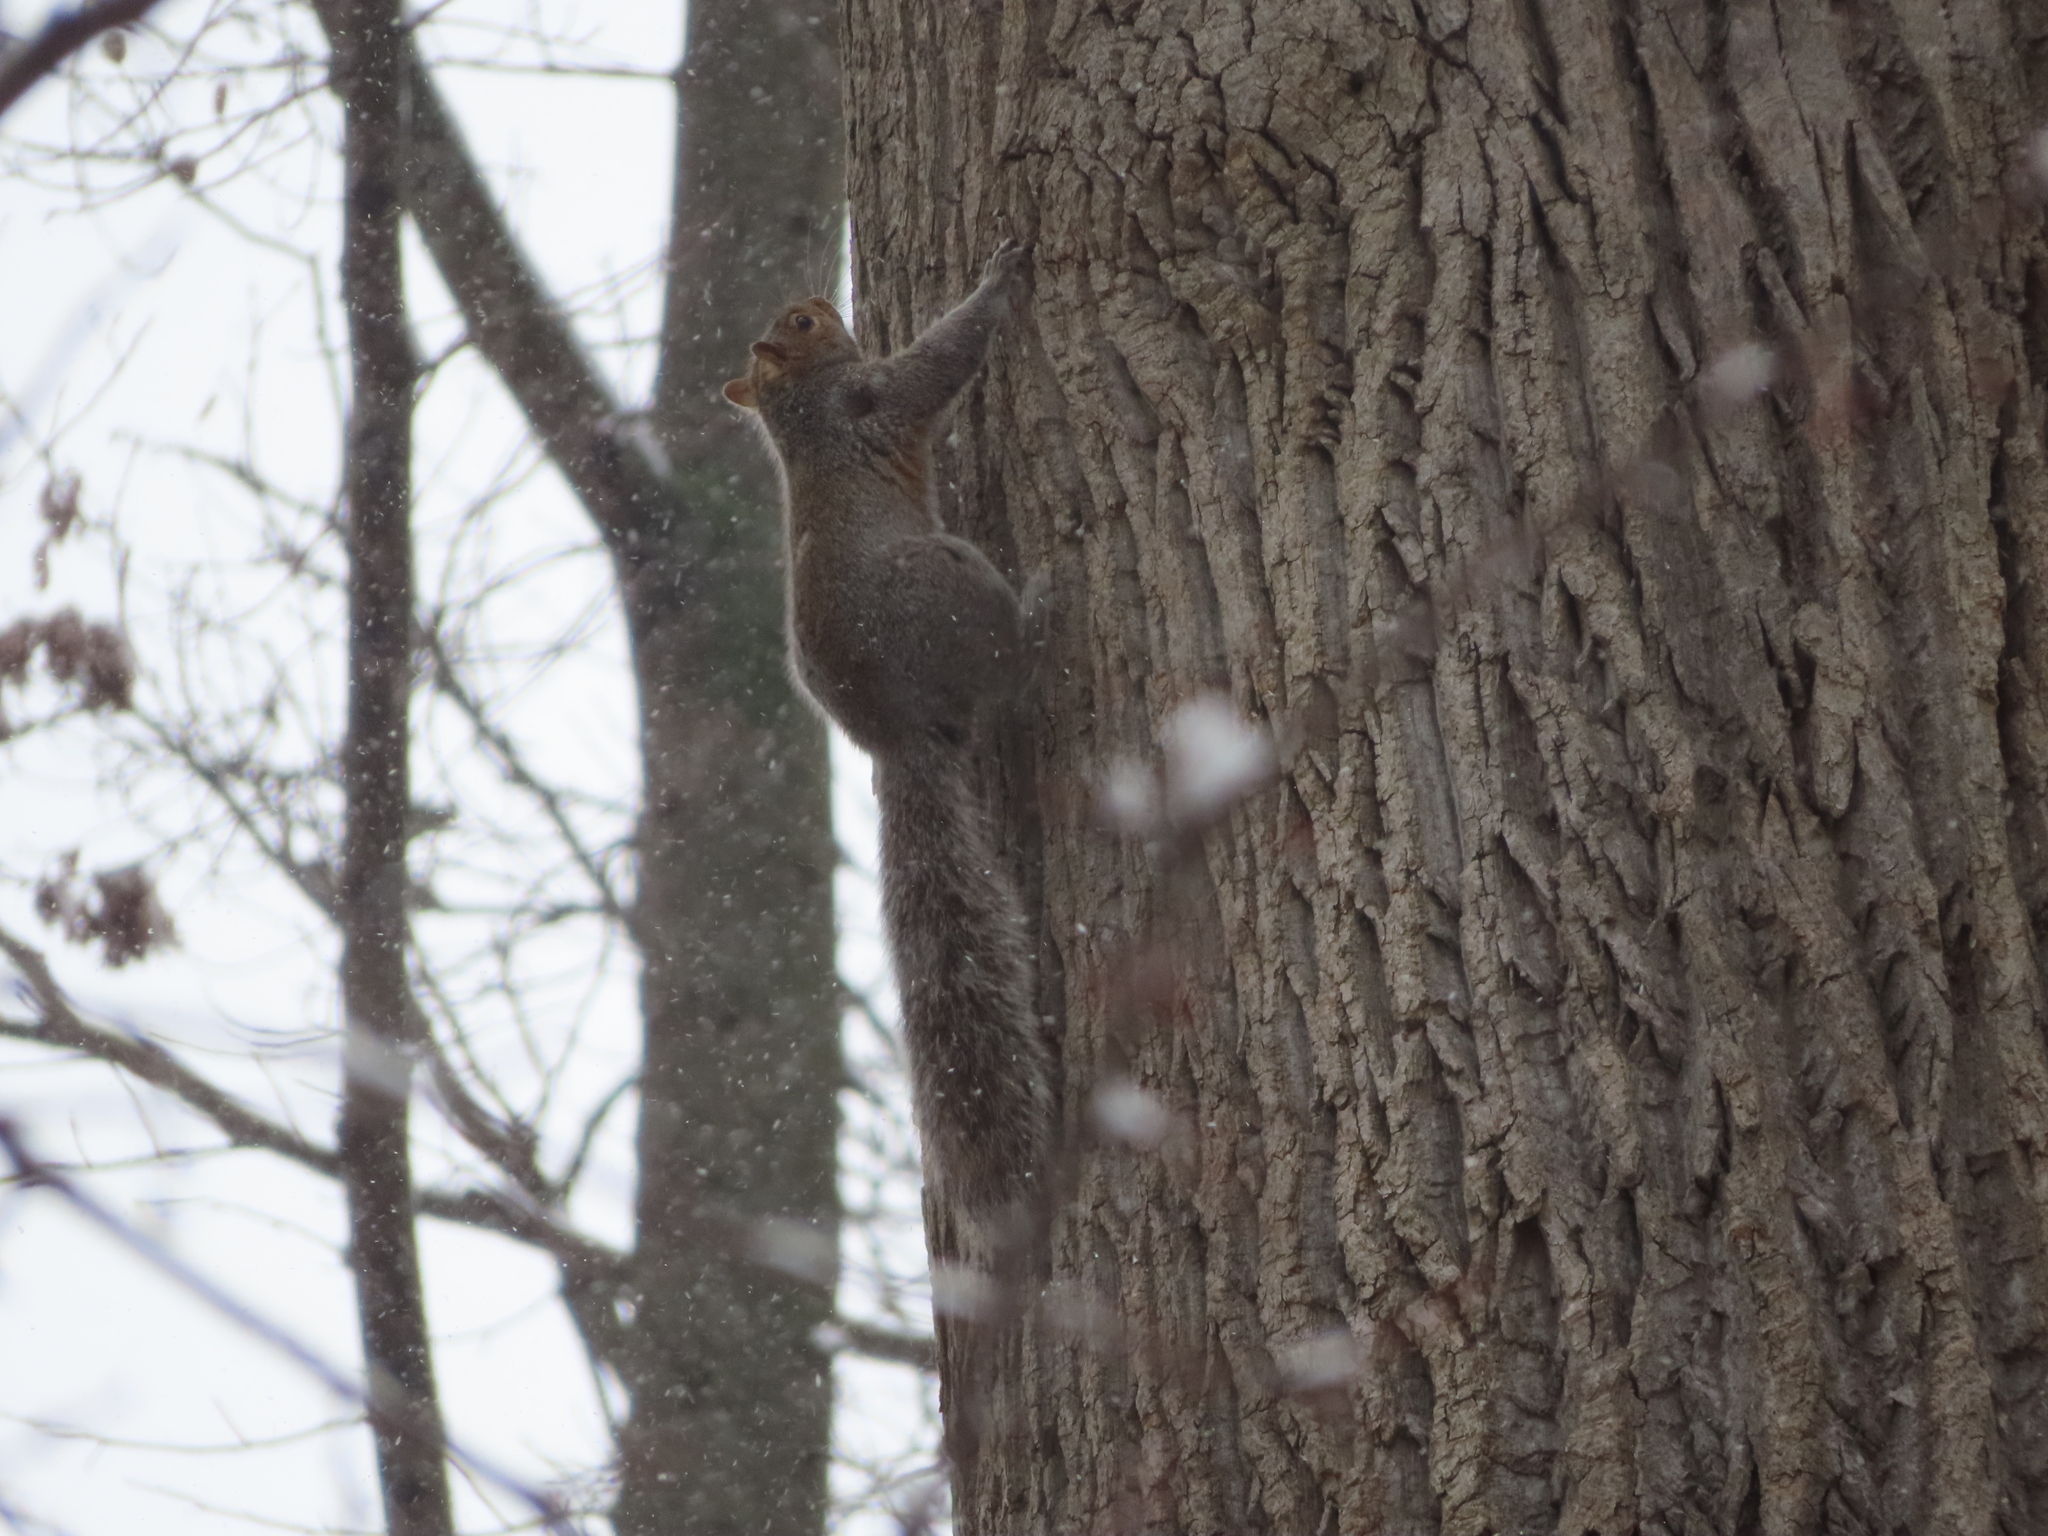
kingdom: Animalia
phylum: Chordata
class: Mammalia
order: Rodentia
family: Sciuridae
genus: Sciurus
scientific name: Sciurus carolinensis
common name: Eastern gray squirrel
